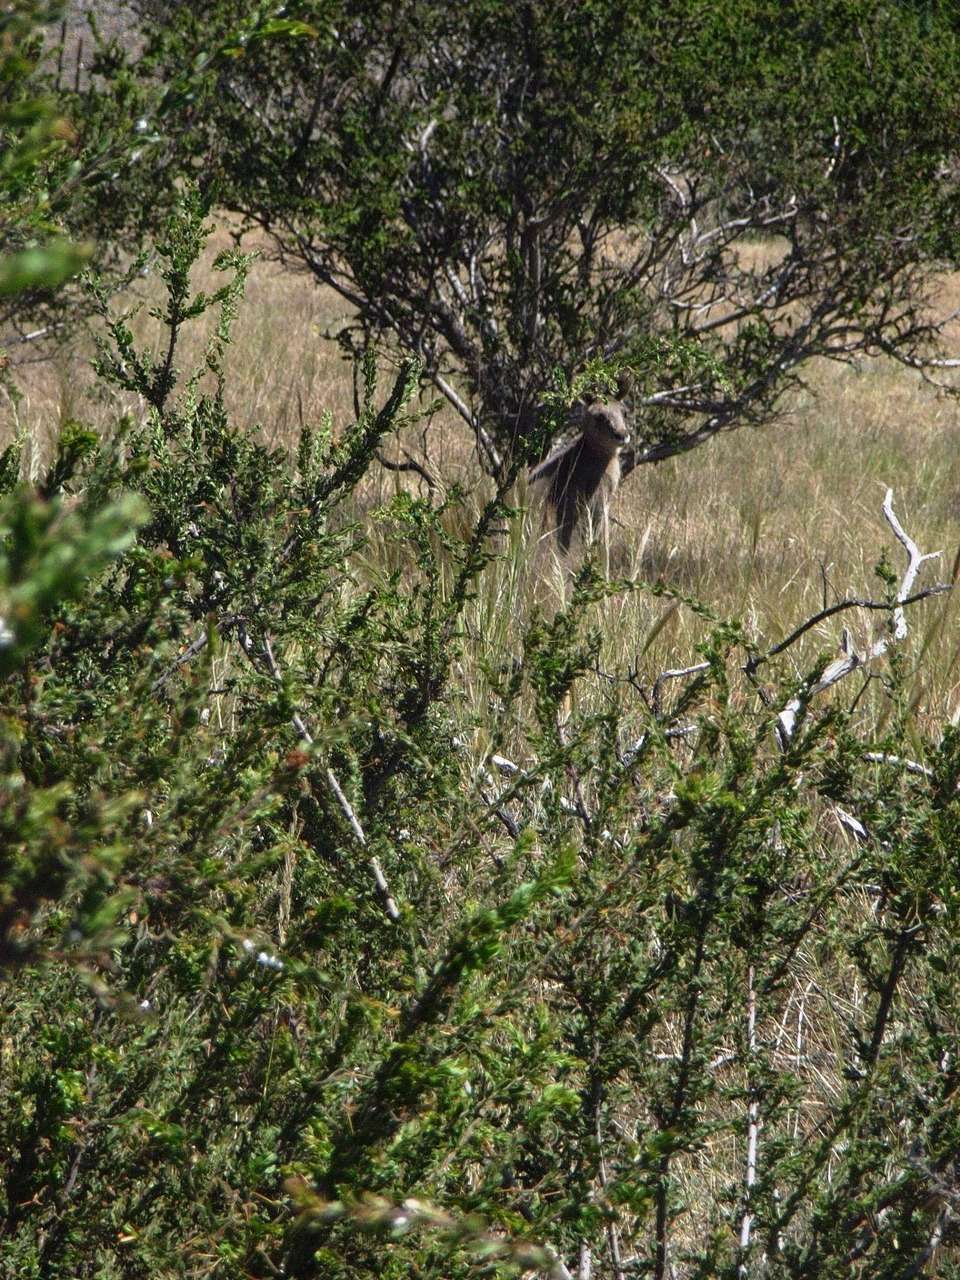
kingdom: Animalia
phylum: Chordata
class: Mammalia
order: Diprotodontia
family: Macropodidae
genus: Macropus
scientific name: Macropus giganteus
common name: Eastern grey kangaroo
